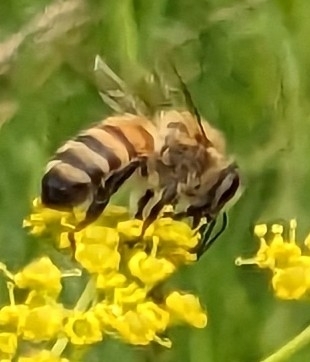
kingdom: Animalia
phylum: Arthropoda
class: Insecta
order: Hymenoptera
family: Apidae
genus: Apis
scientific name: Apis mellifera
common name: Honey bee
